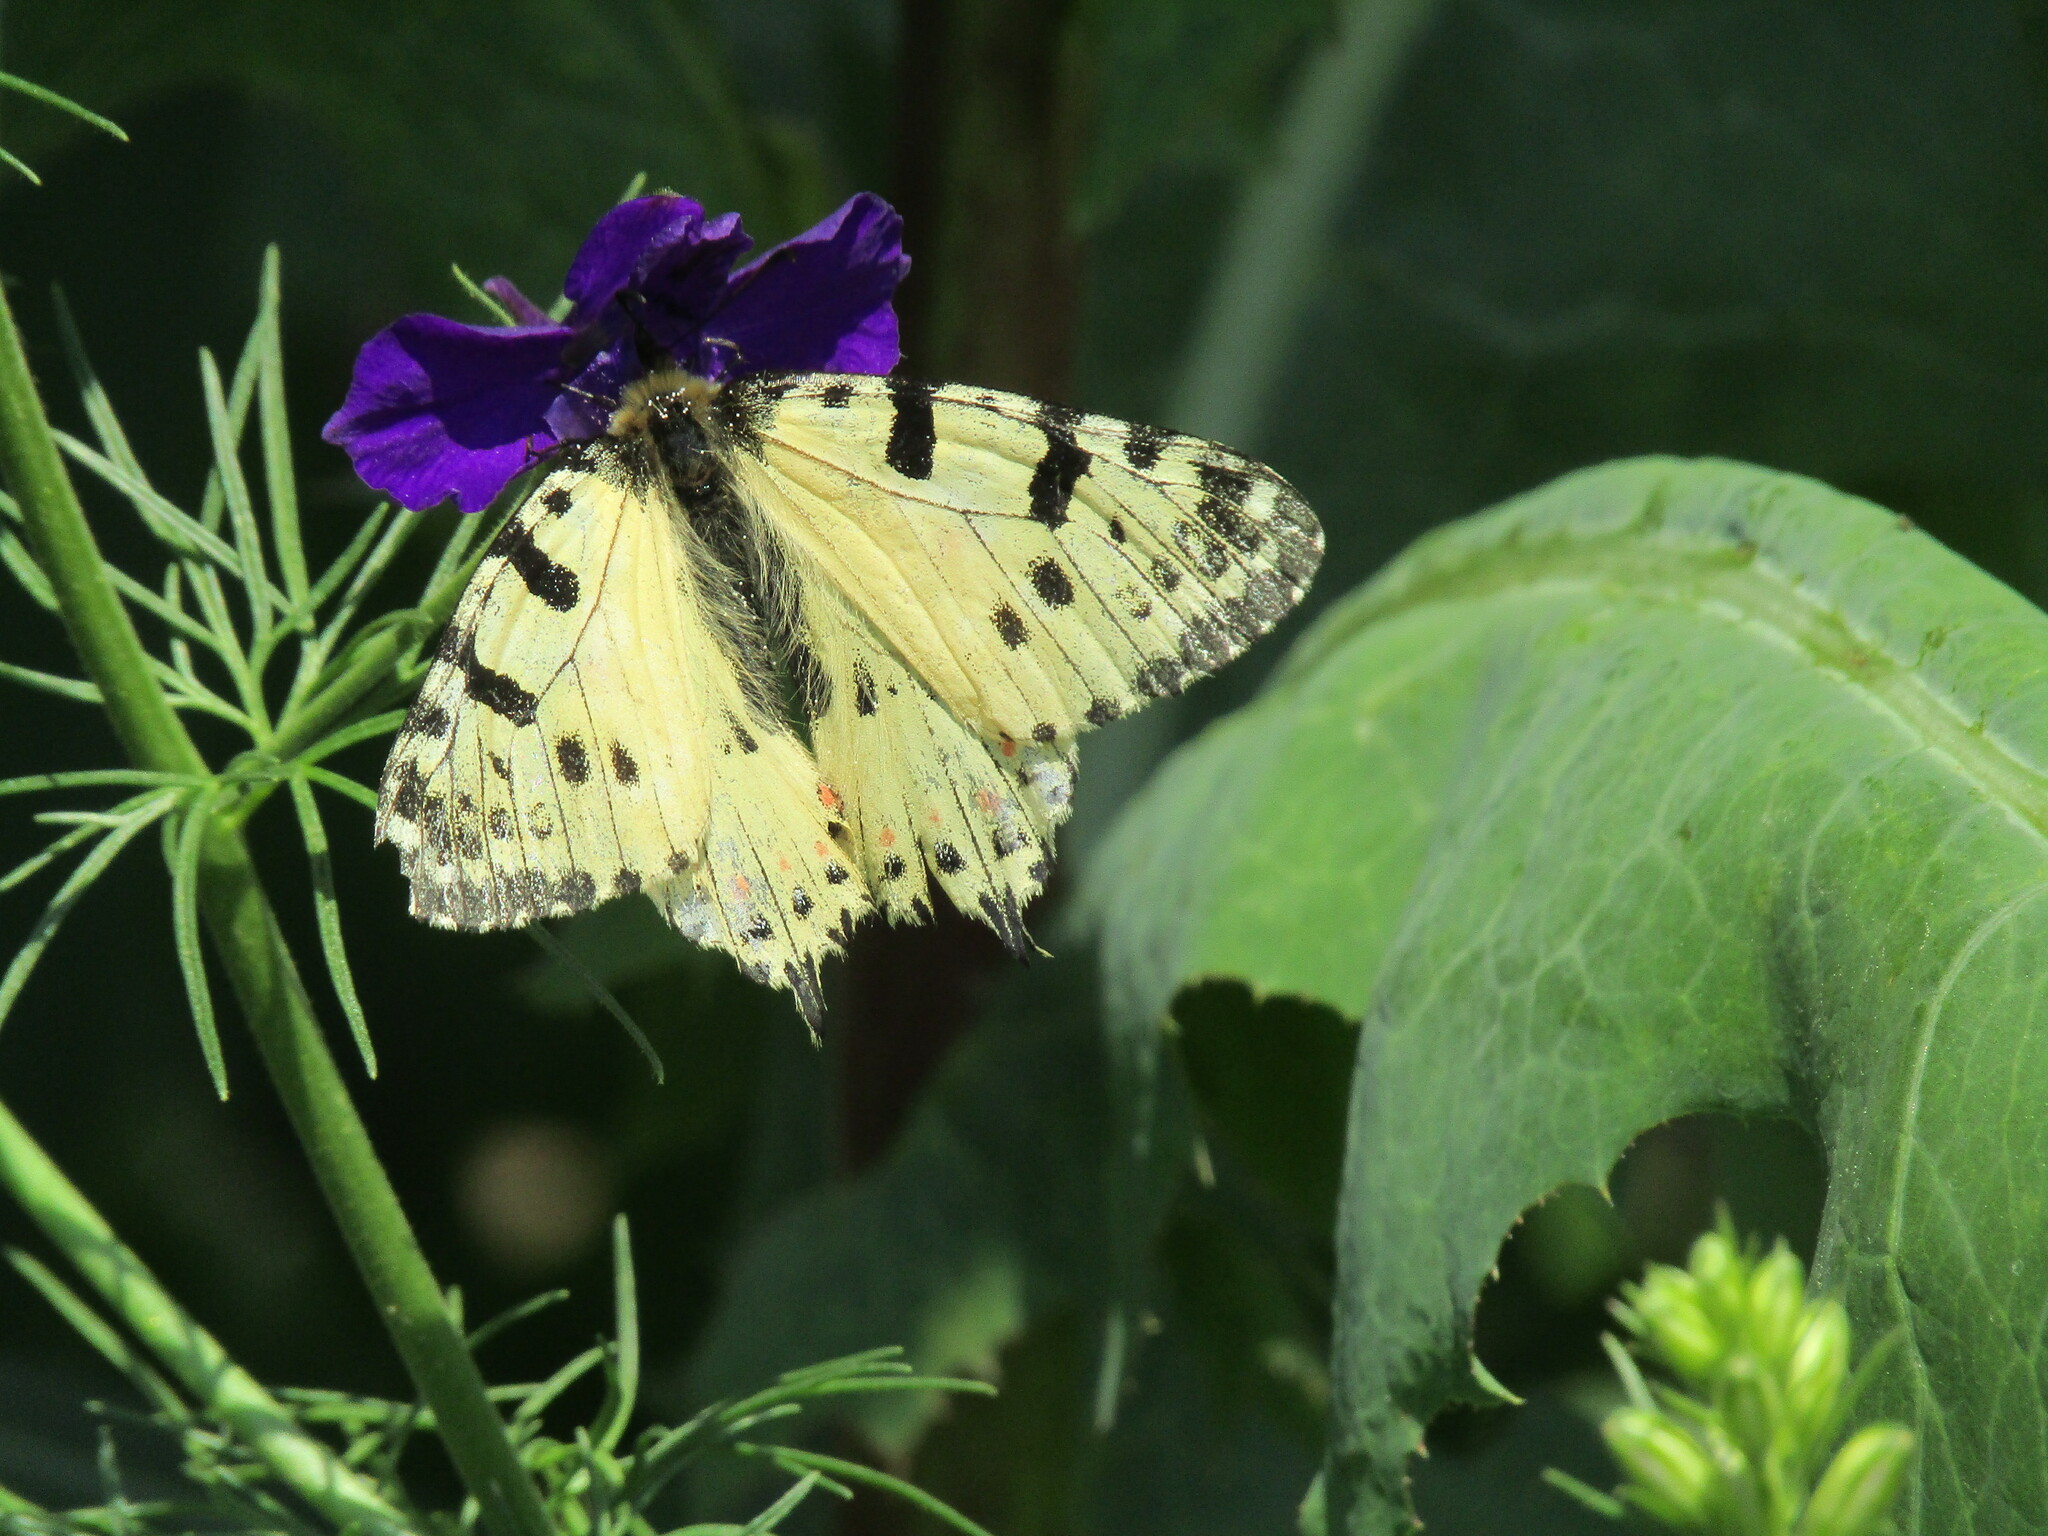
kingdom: Animalia
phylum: Arthropoda
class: Insecta
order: Lepidoptera
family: Papilionidae
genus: Zerynthia
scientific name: Zerynthia cerisy
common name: Eastern festoon
